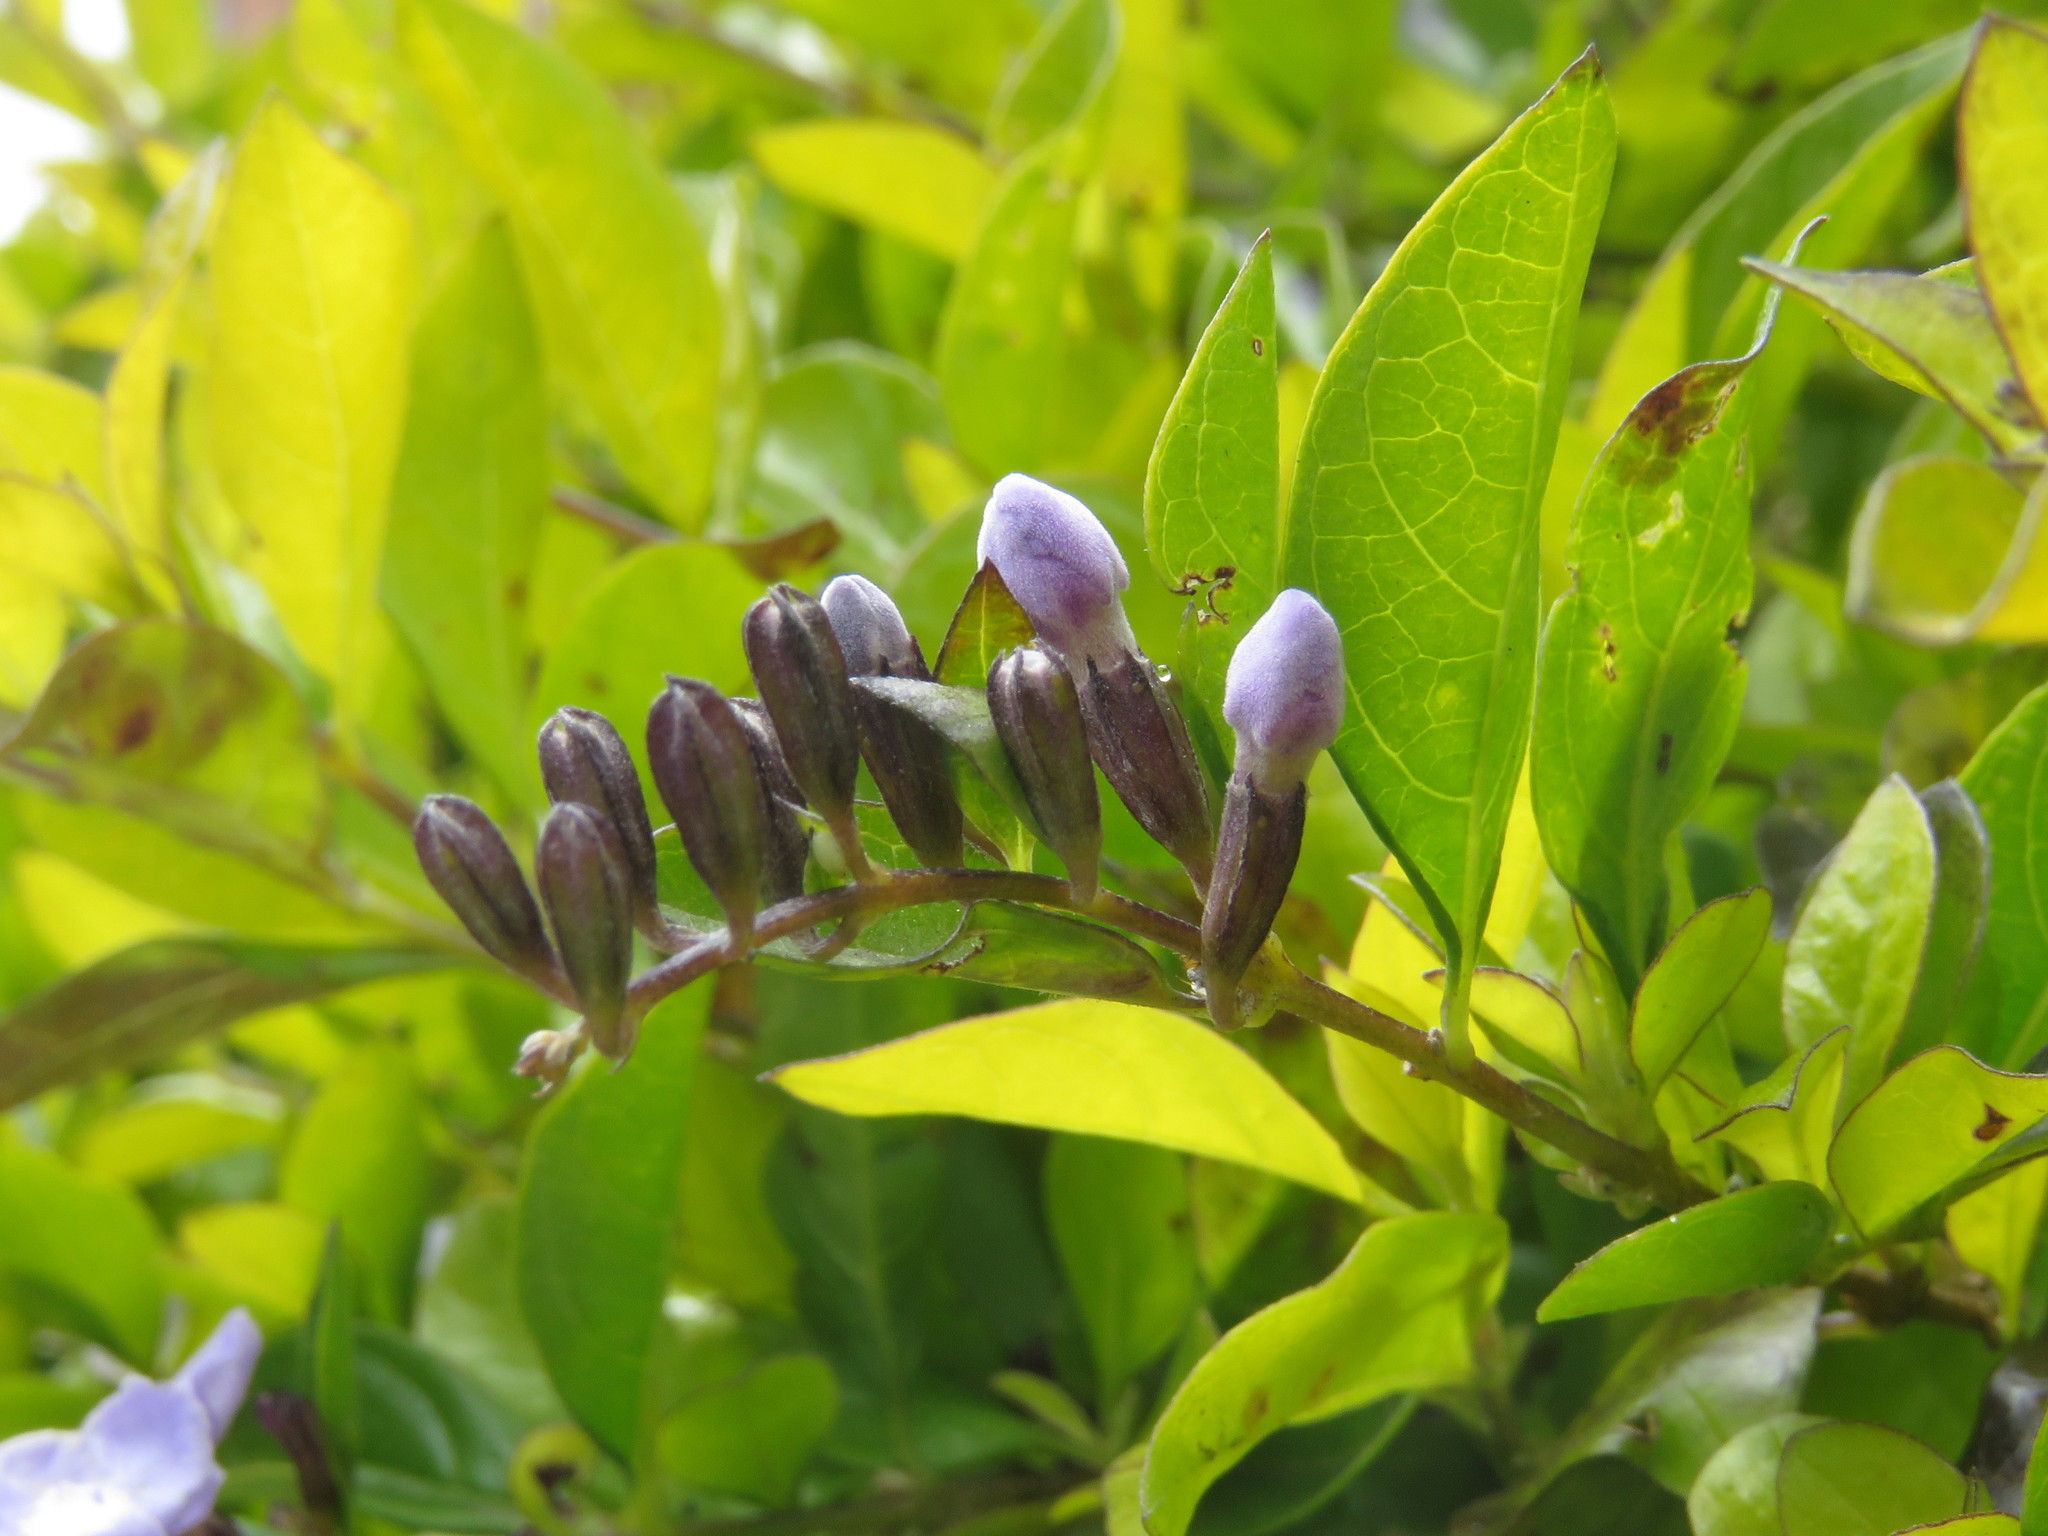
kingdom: Animalia
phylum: Arthropoda
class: Insecta
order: Hymenoptera
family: Apidae
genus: Apis
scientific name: Apis mellifera
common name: Honey bee
